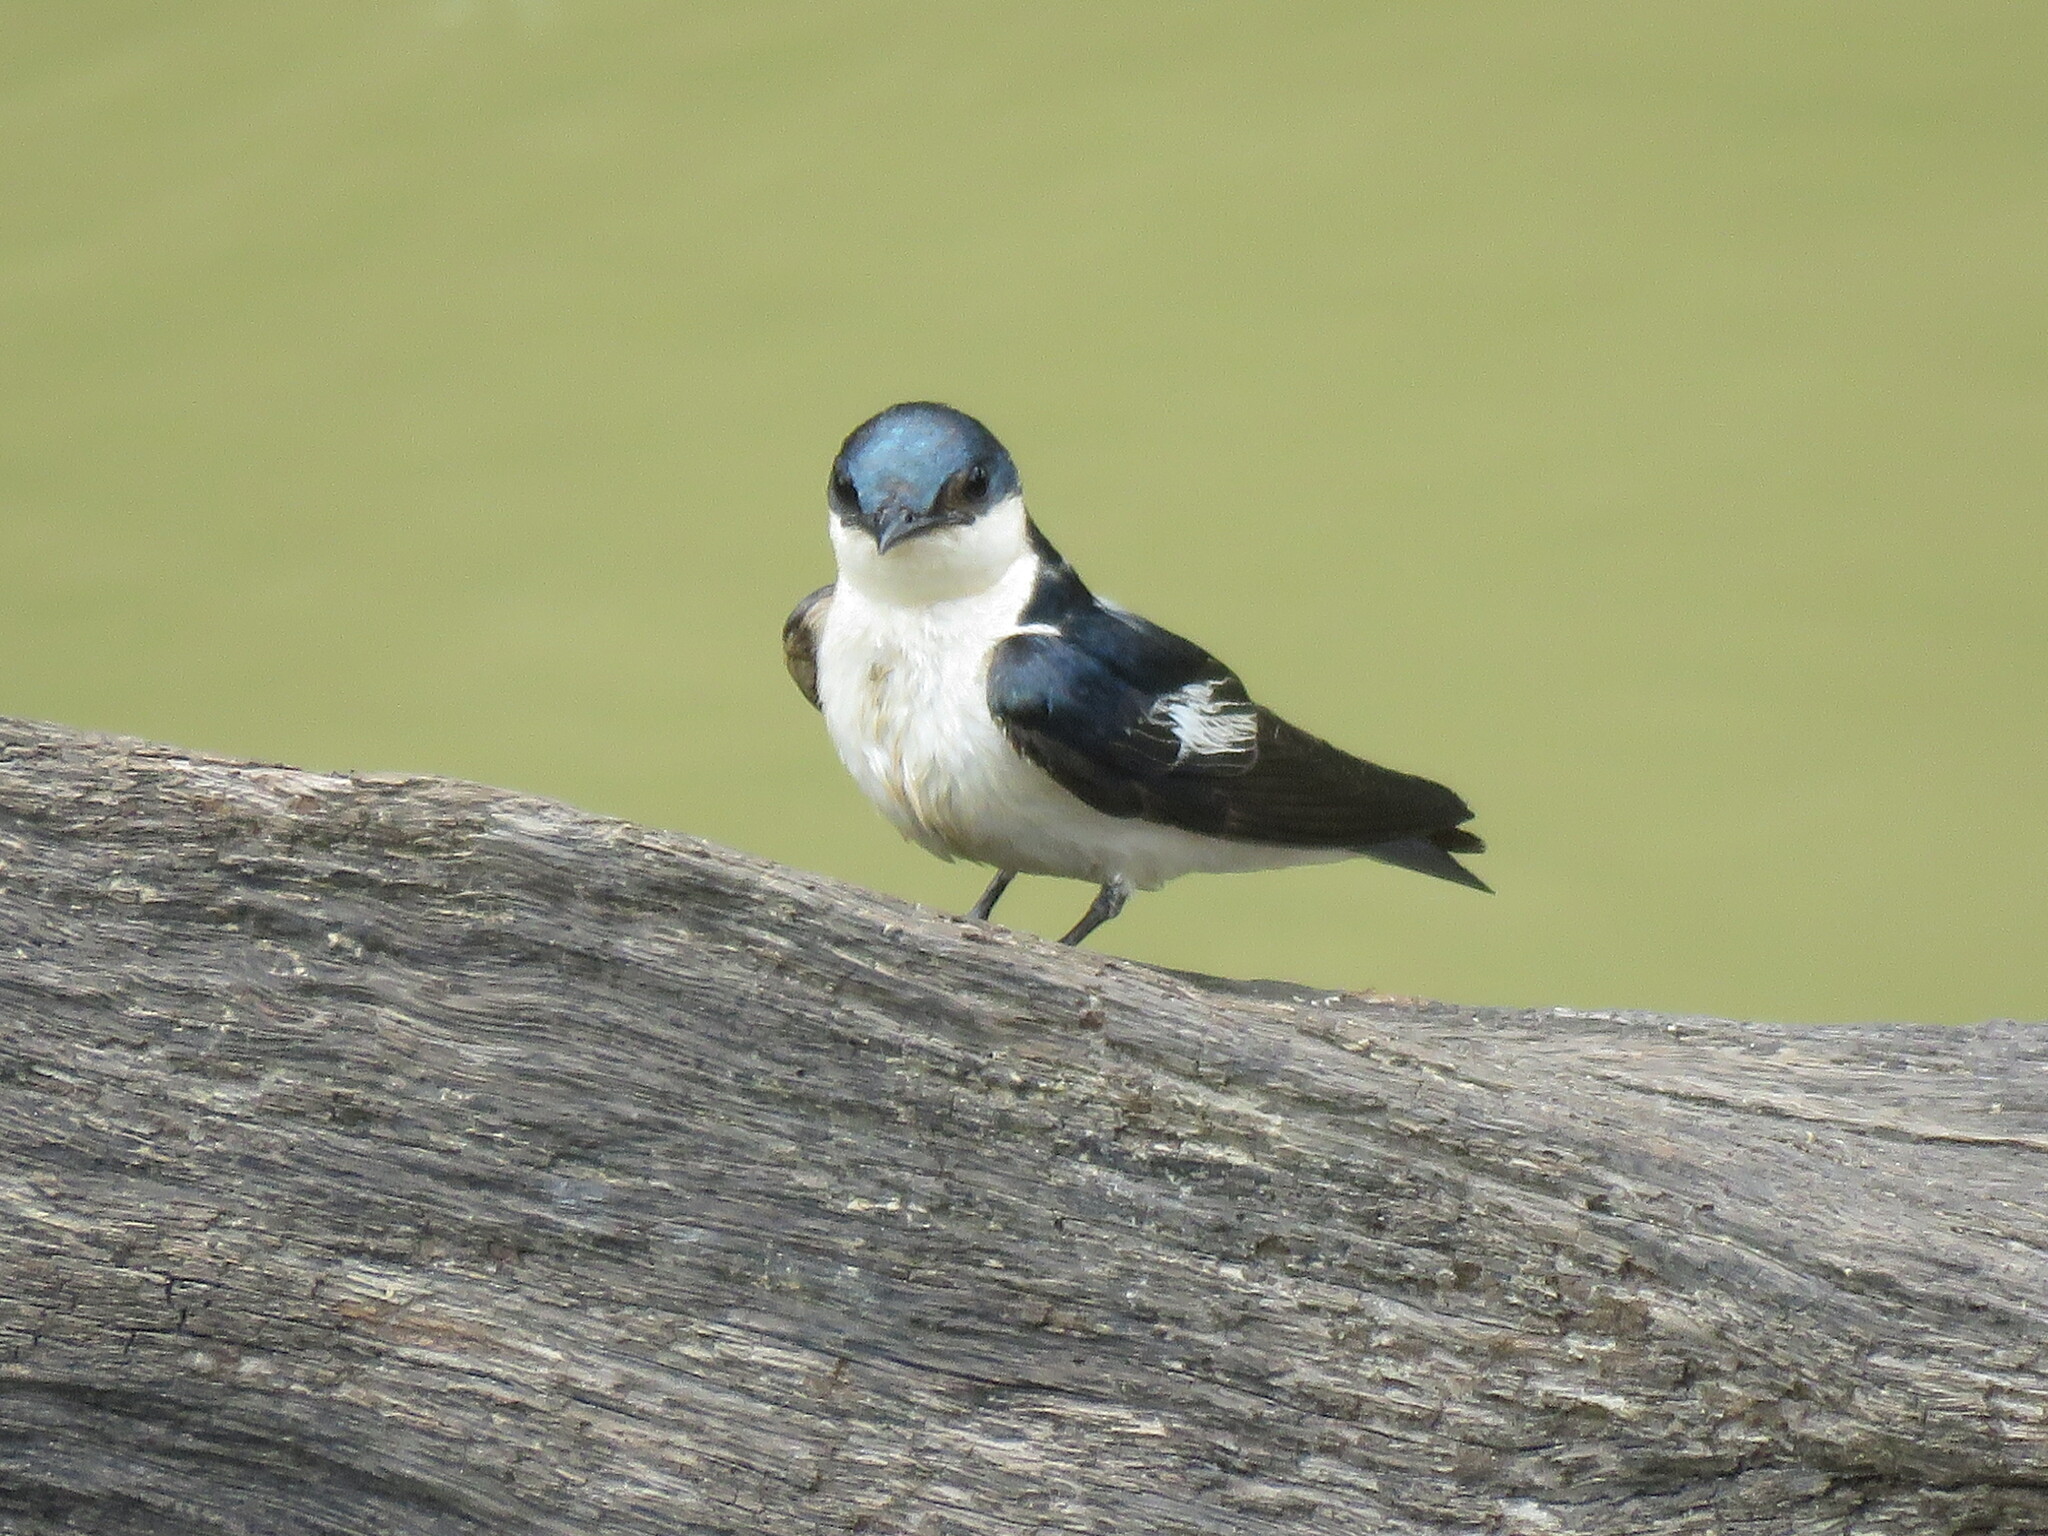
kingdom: Animalia
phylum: Chordata
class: Aves
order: Passeriformes
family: Hirundinidae
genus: Tachycineta
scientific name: Tachycineta albiventer
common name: White-winged swallow
